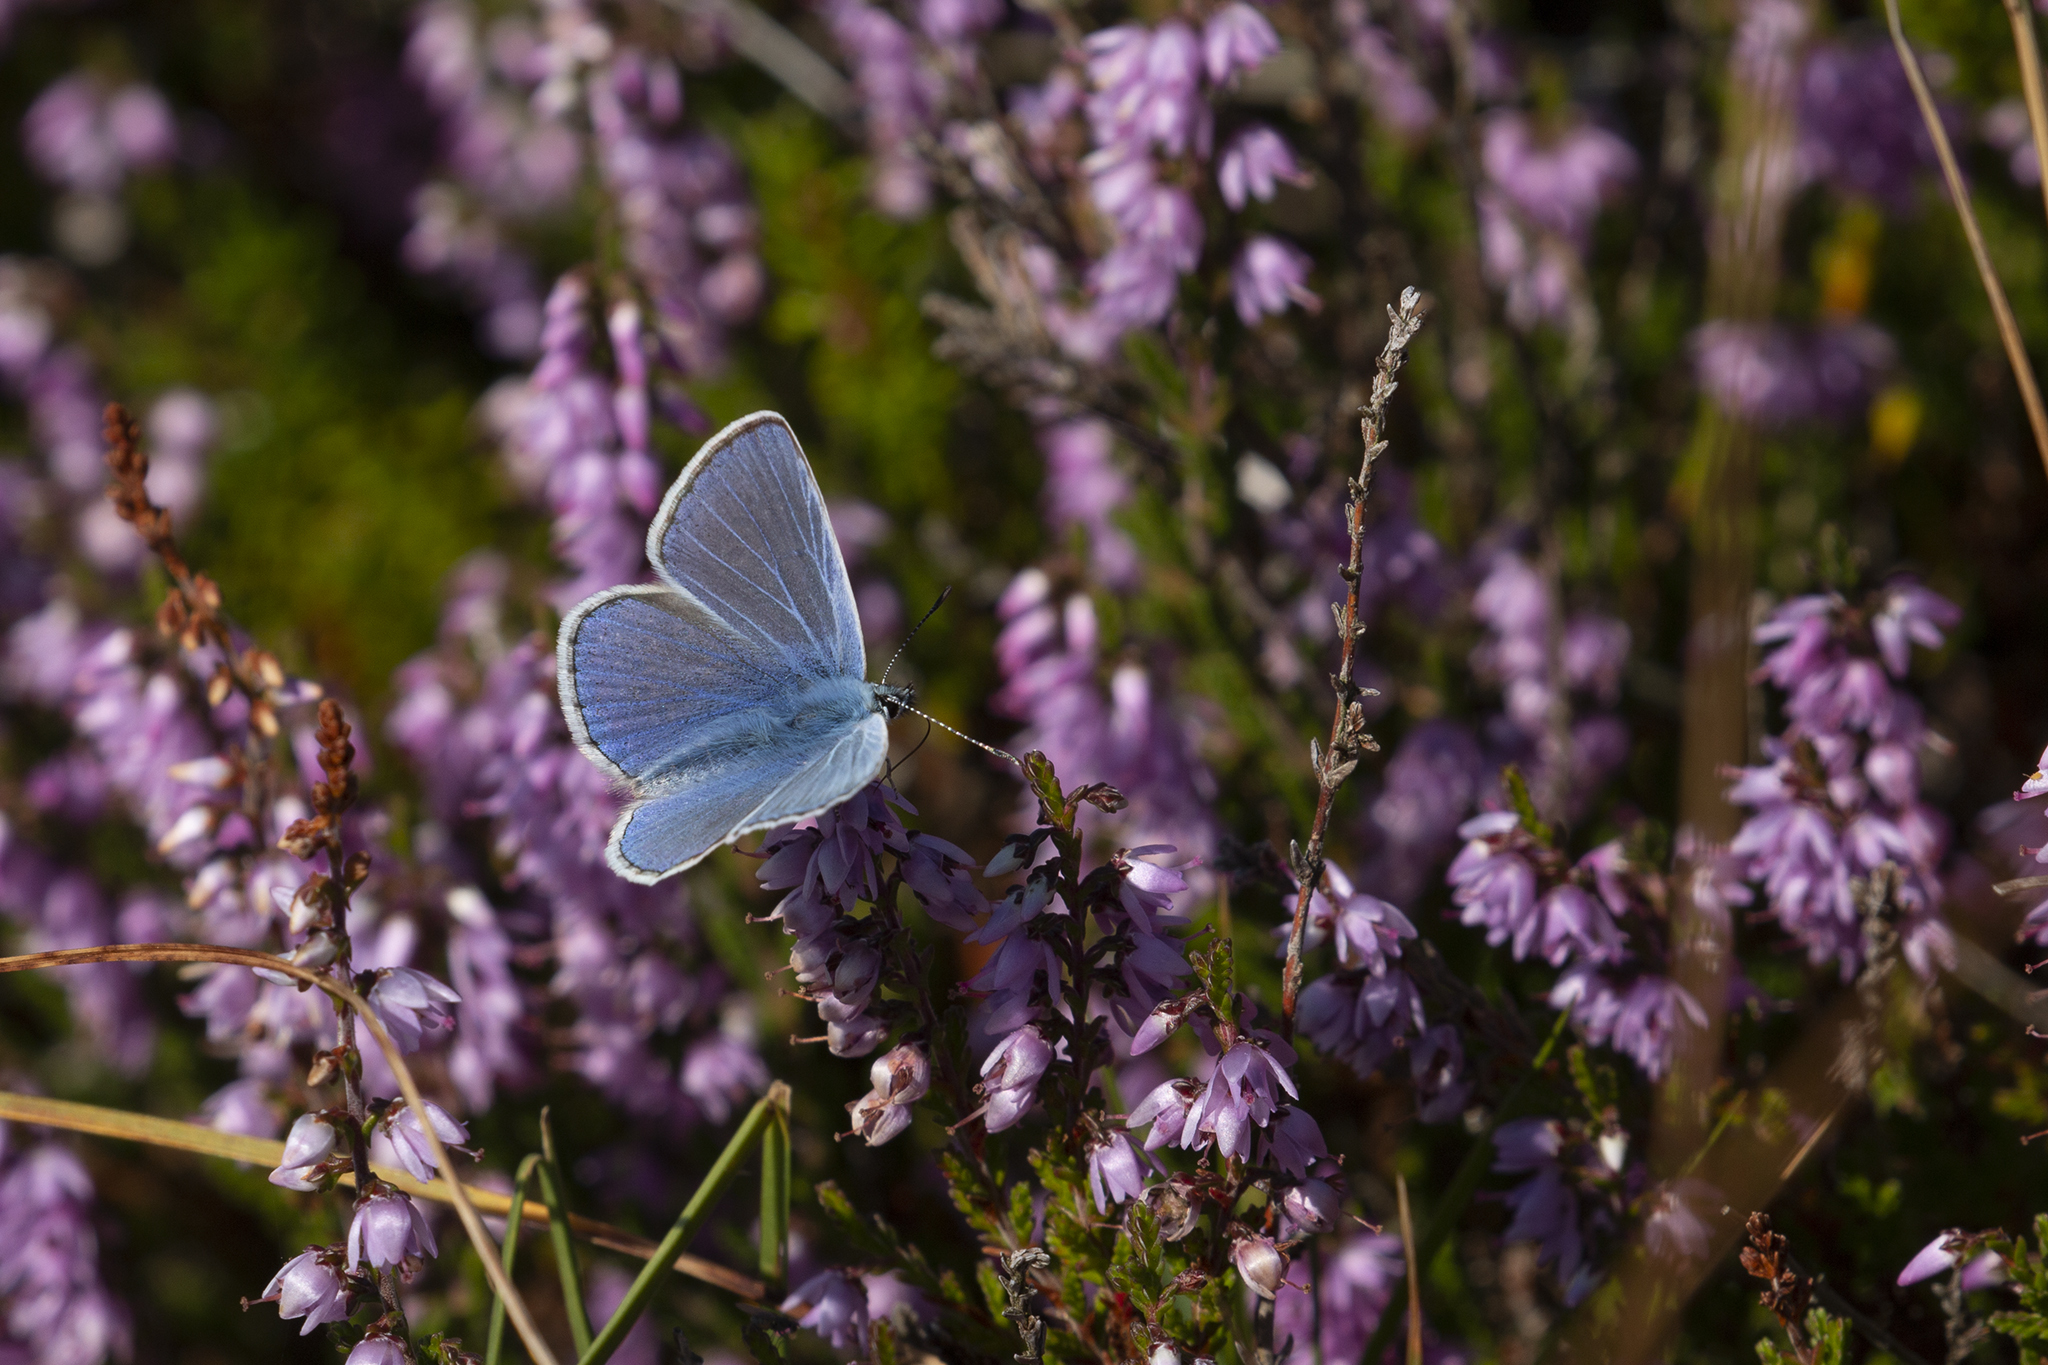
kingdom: Animalia
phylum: Arthropoda
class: Insecta
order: Lepidoptera
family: Lycaenidae
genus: Polyommatus
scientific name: Polyommatus icarus
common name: Common blue
